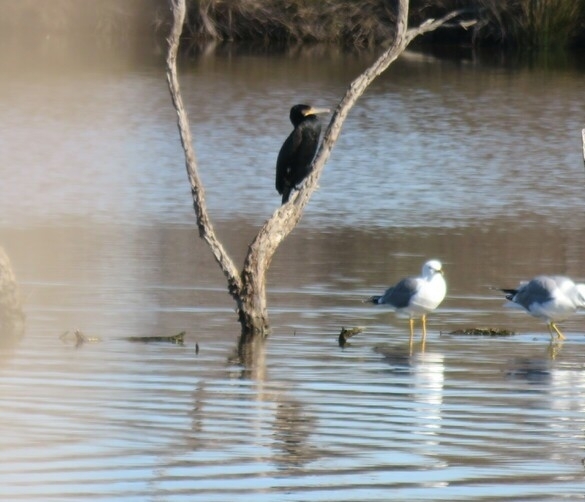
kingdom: Animalia
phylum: Chordata
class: Aves
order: Suliformes
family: Phalacrocoracidae
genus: Phalacrocorax
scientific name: Phalacrocorax carbo
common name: Great cormorant
